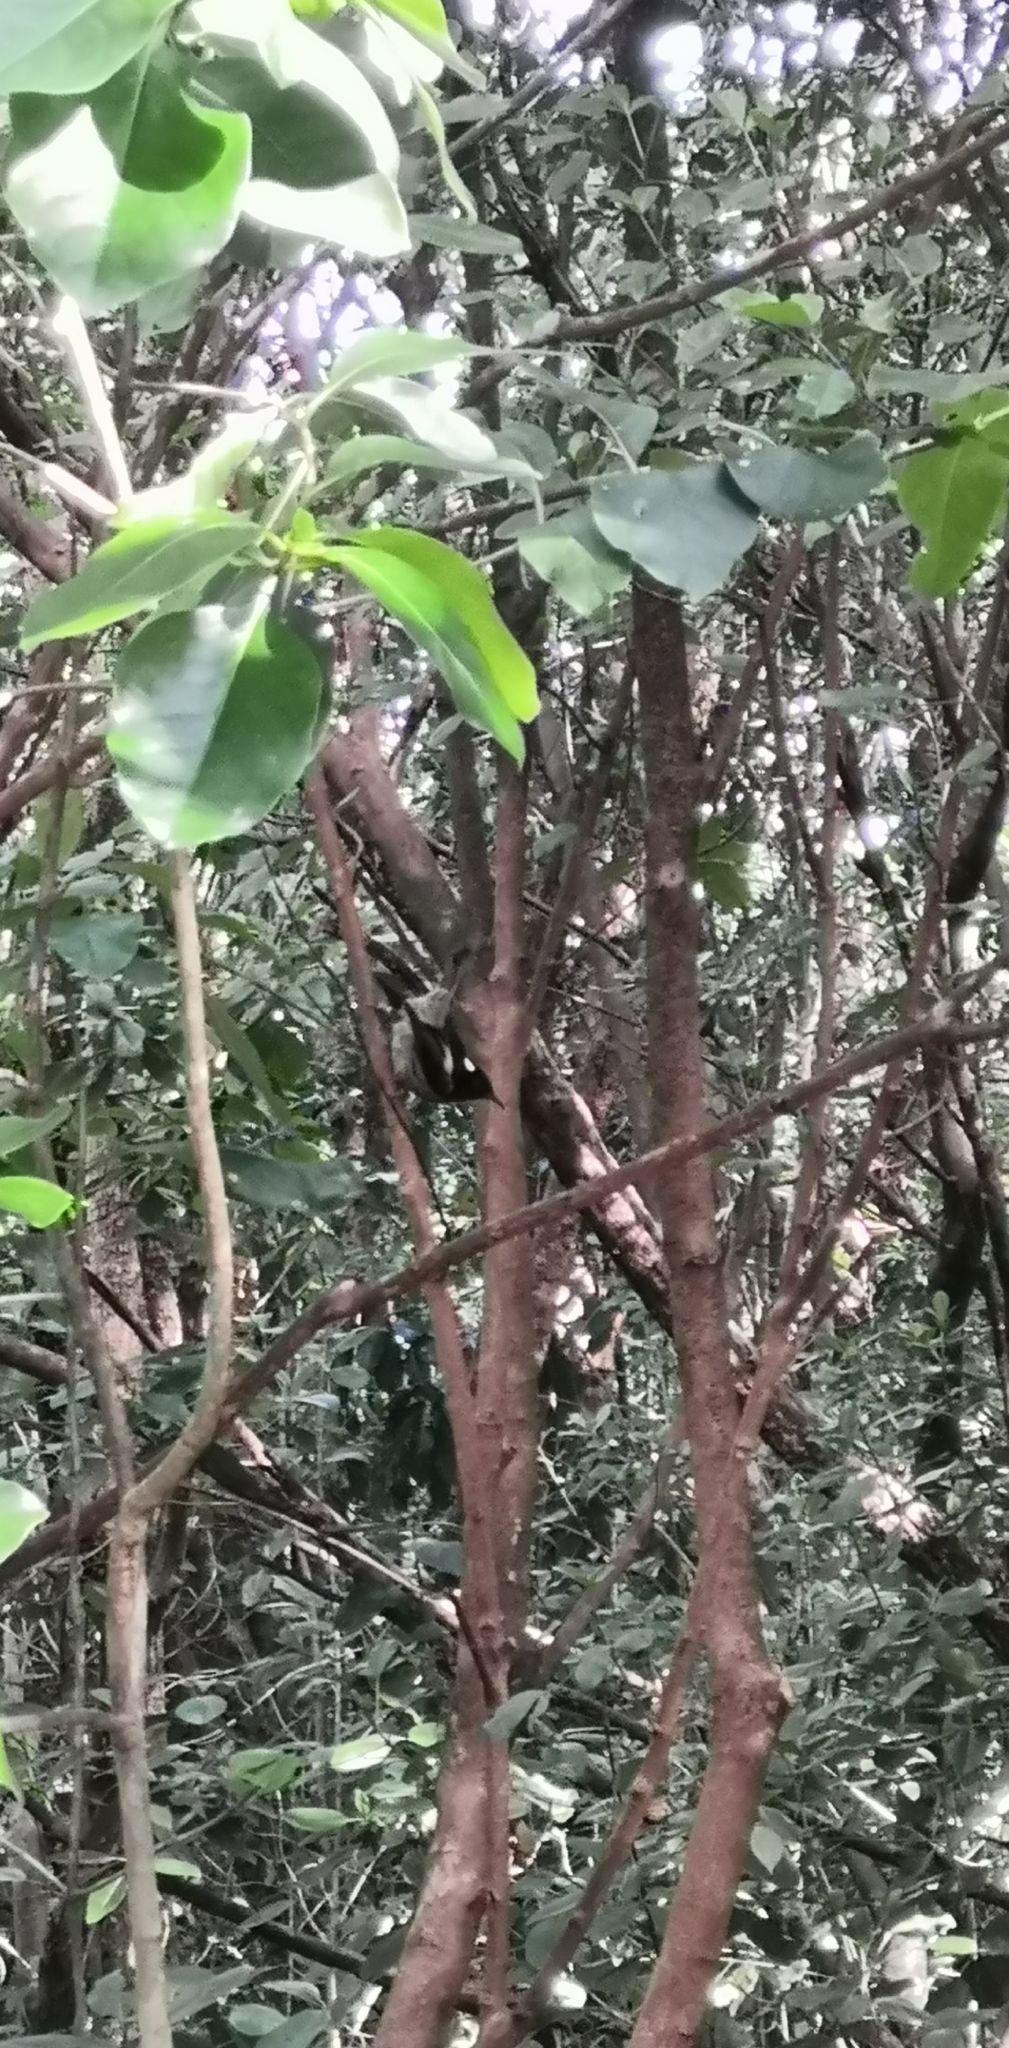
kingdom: Animalia
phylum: Chordata
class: Aves
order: Passeriformes
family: Notiomystidae
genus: Notiomystis
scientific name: Notiomystis cincta
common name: Stitchbird
